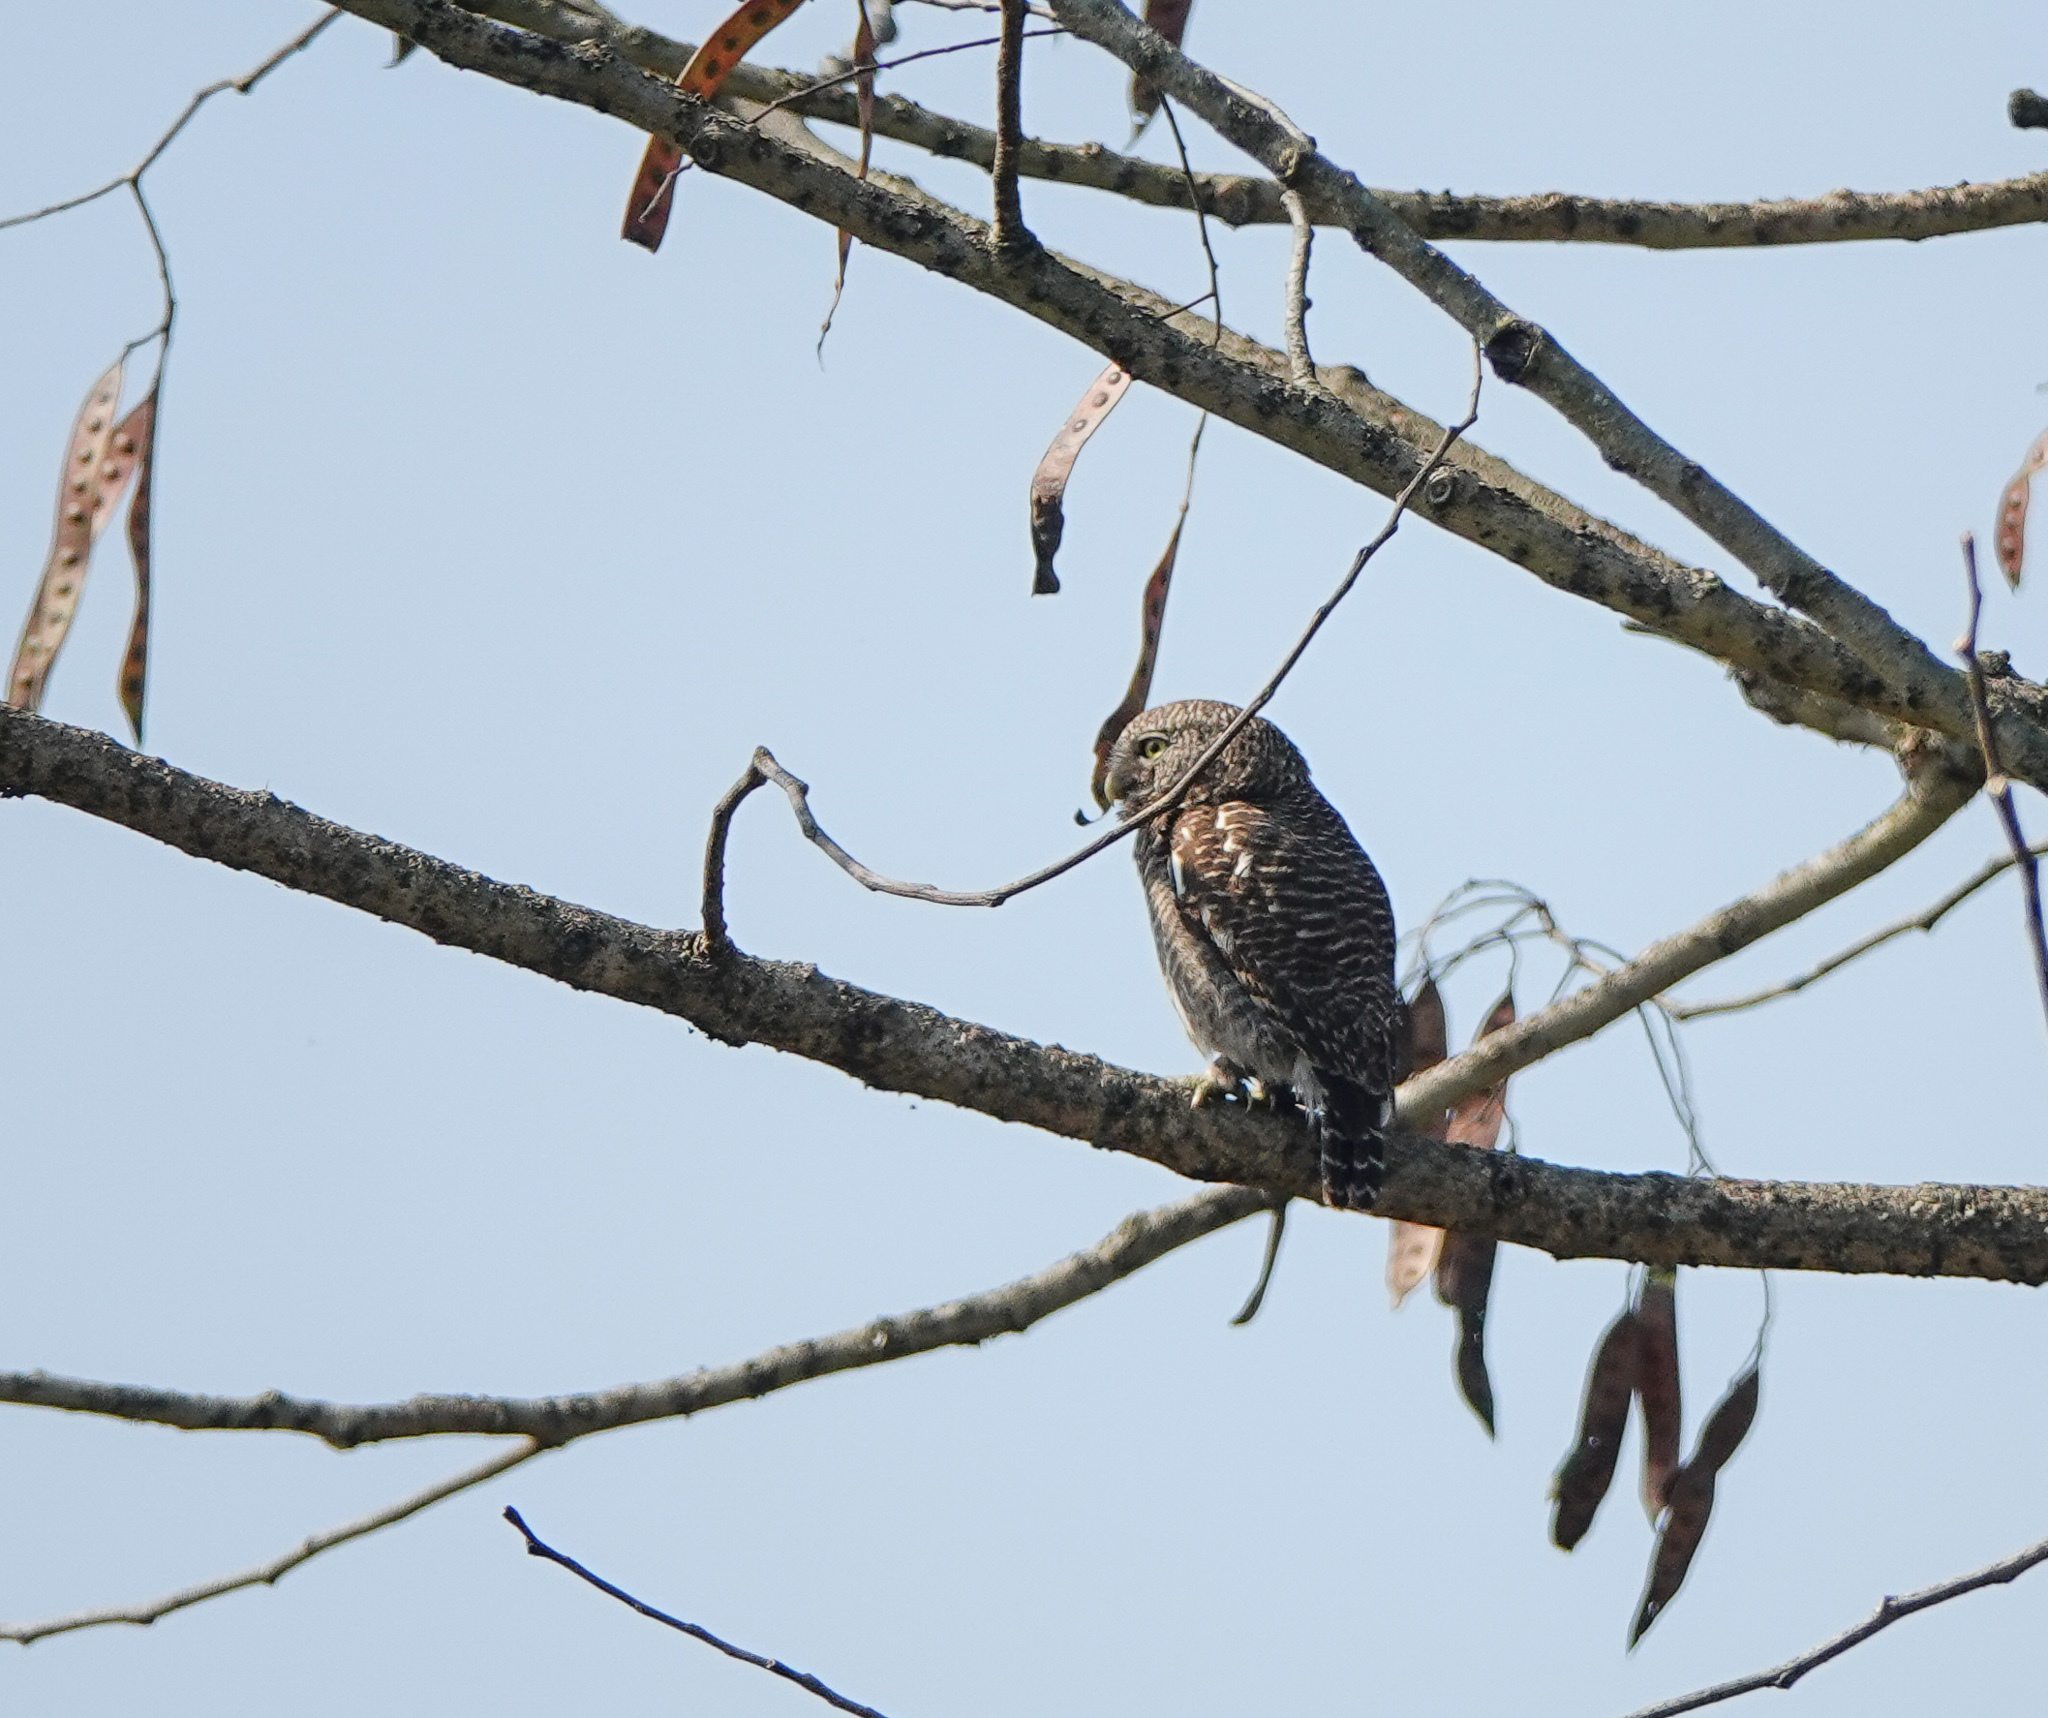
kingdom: Animalia
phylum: Chordata
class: Aves
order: Strigiformes
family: Strigidae
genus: Glaucidium
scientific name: Glaucidium cuculoides
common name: Asian barred owlet
